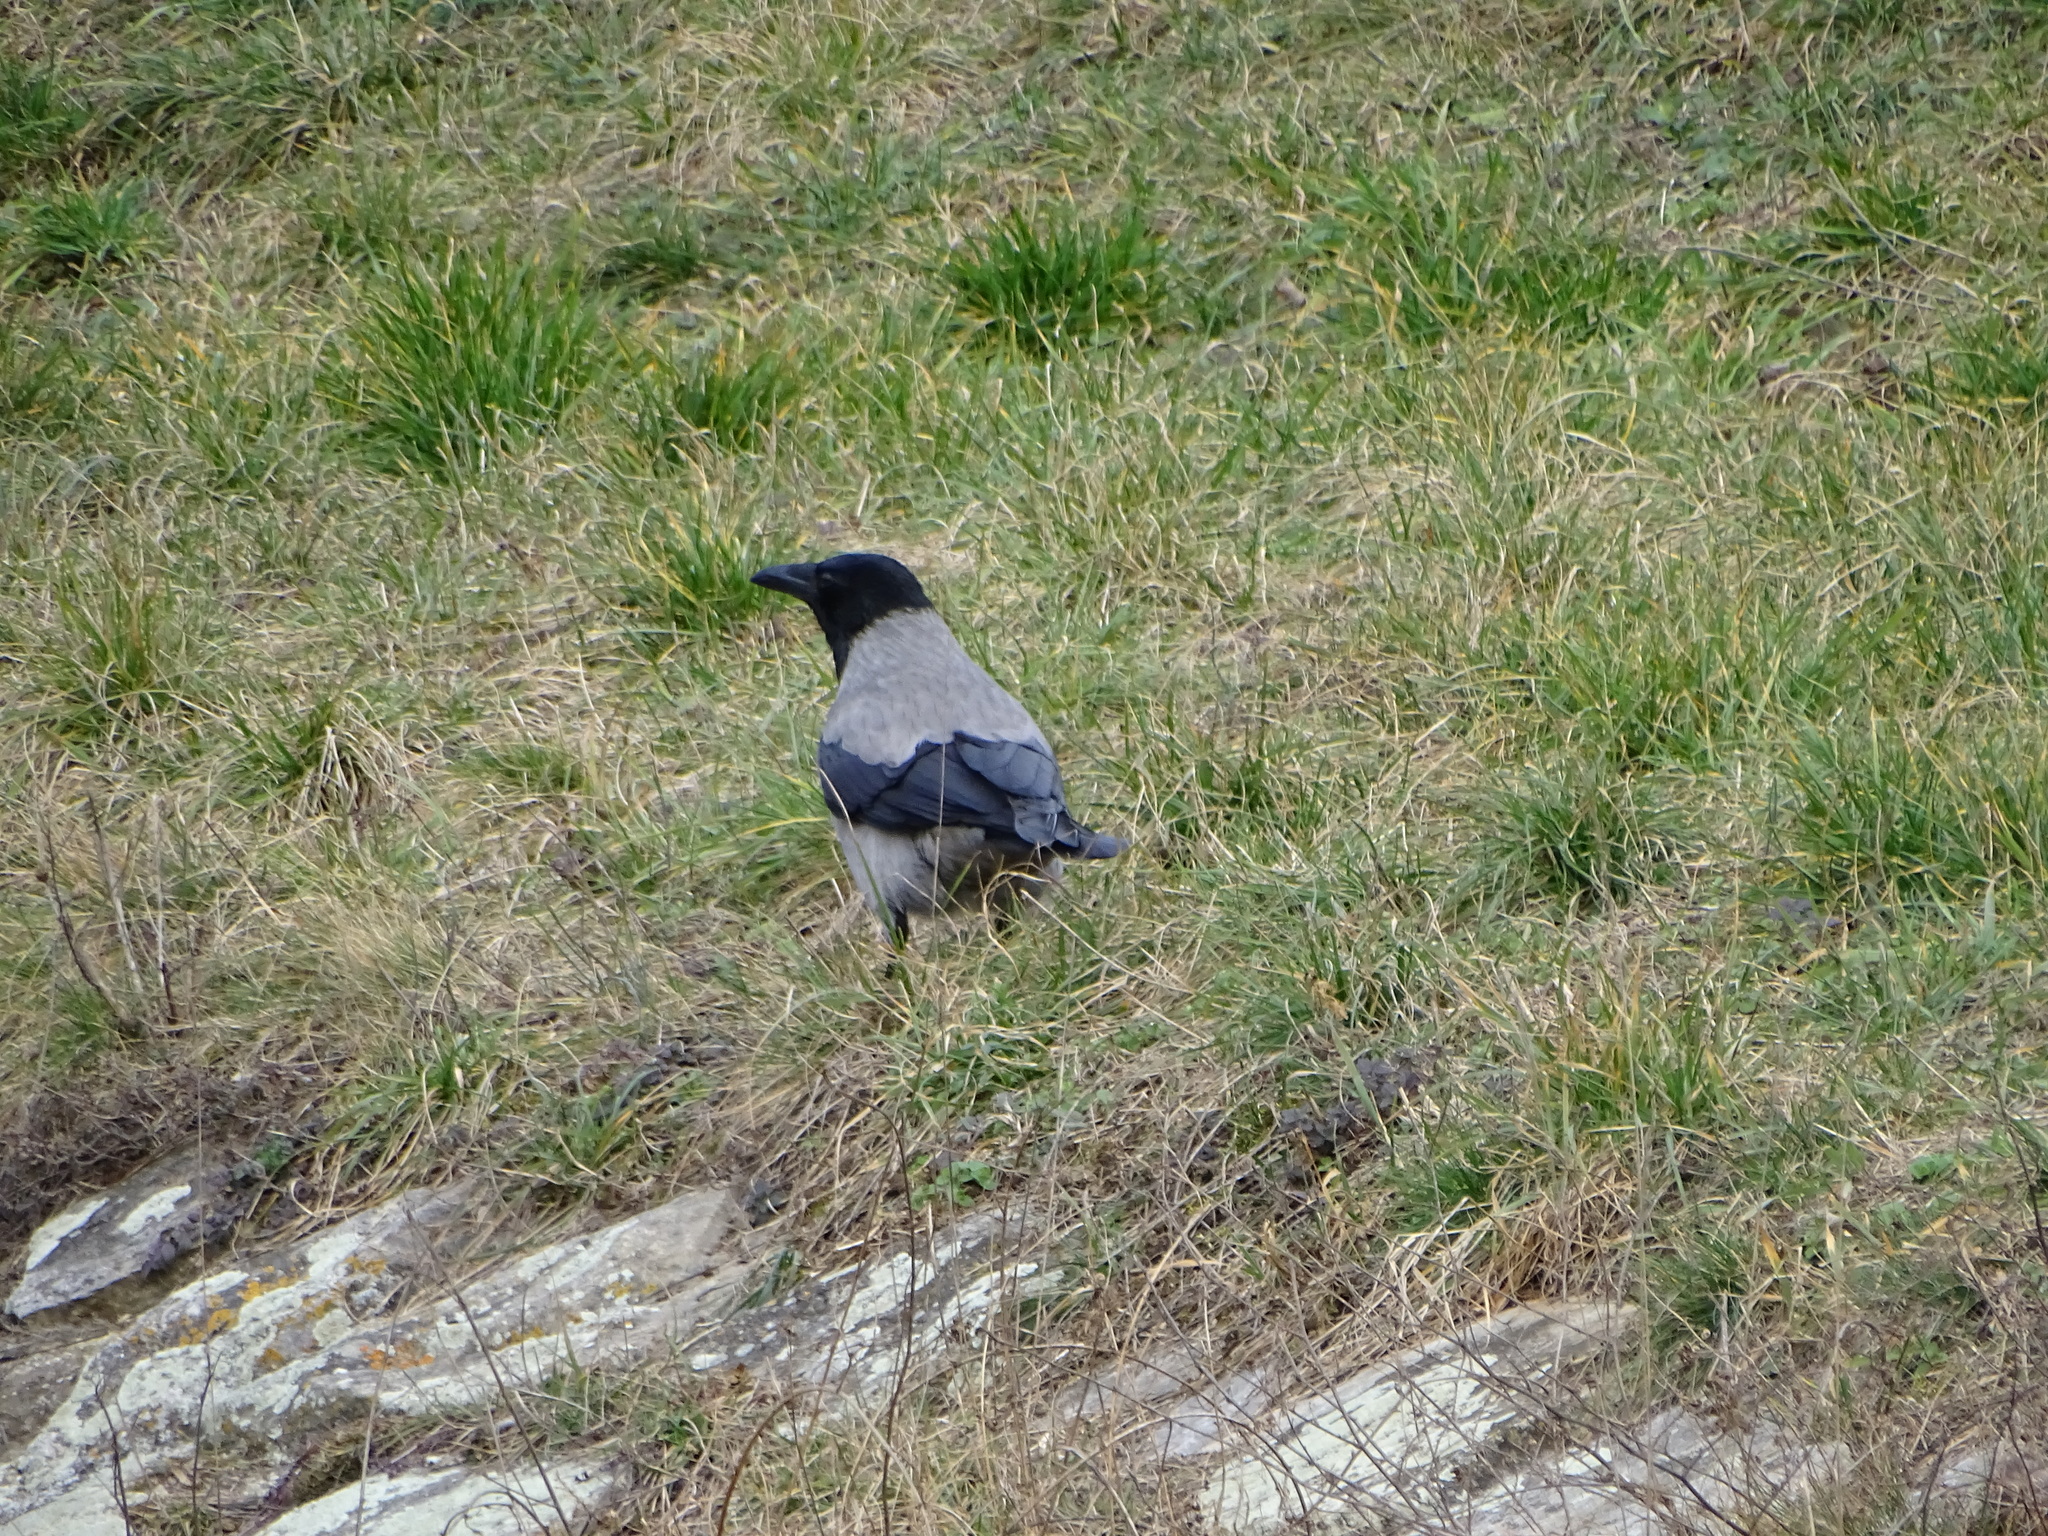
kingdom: Animalia
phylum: Chordata
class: Aves
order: Passeriformes
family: Corvidae
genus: Corvus
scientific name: Corvus cornix
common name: Hooded crow
